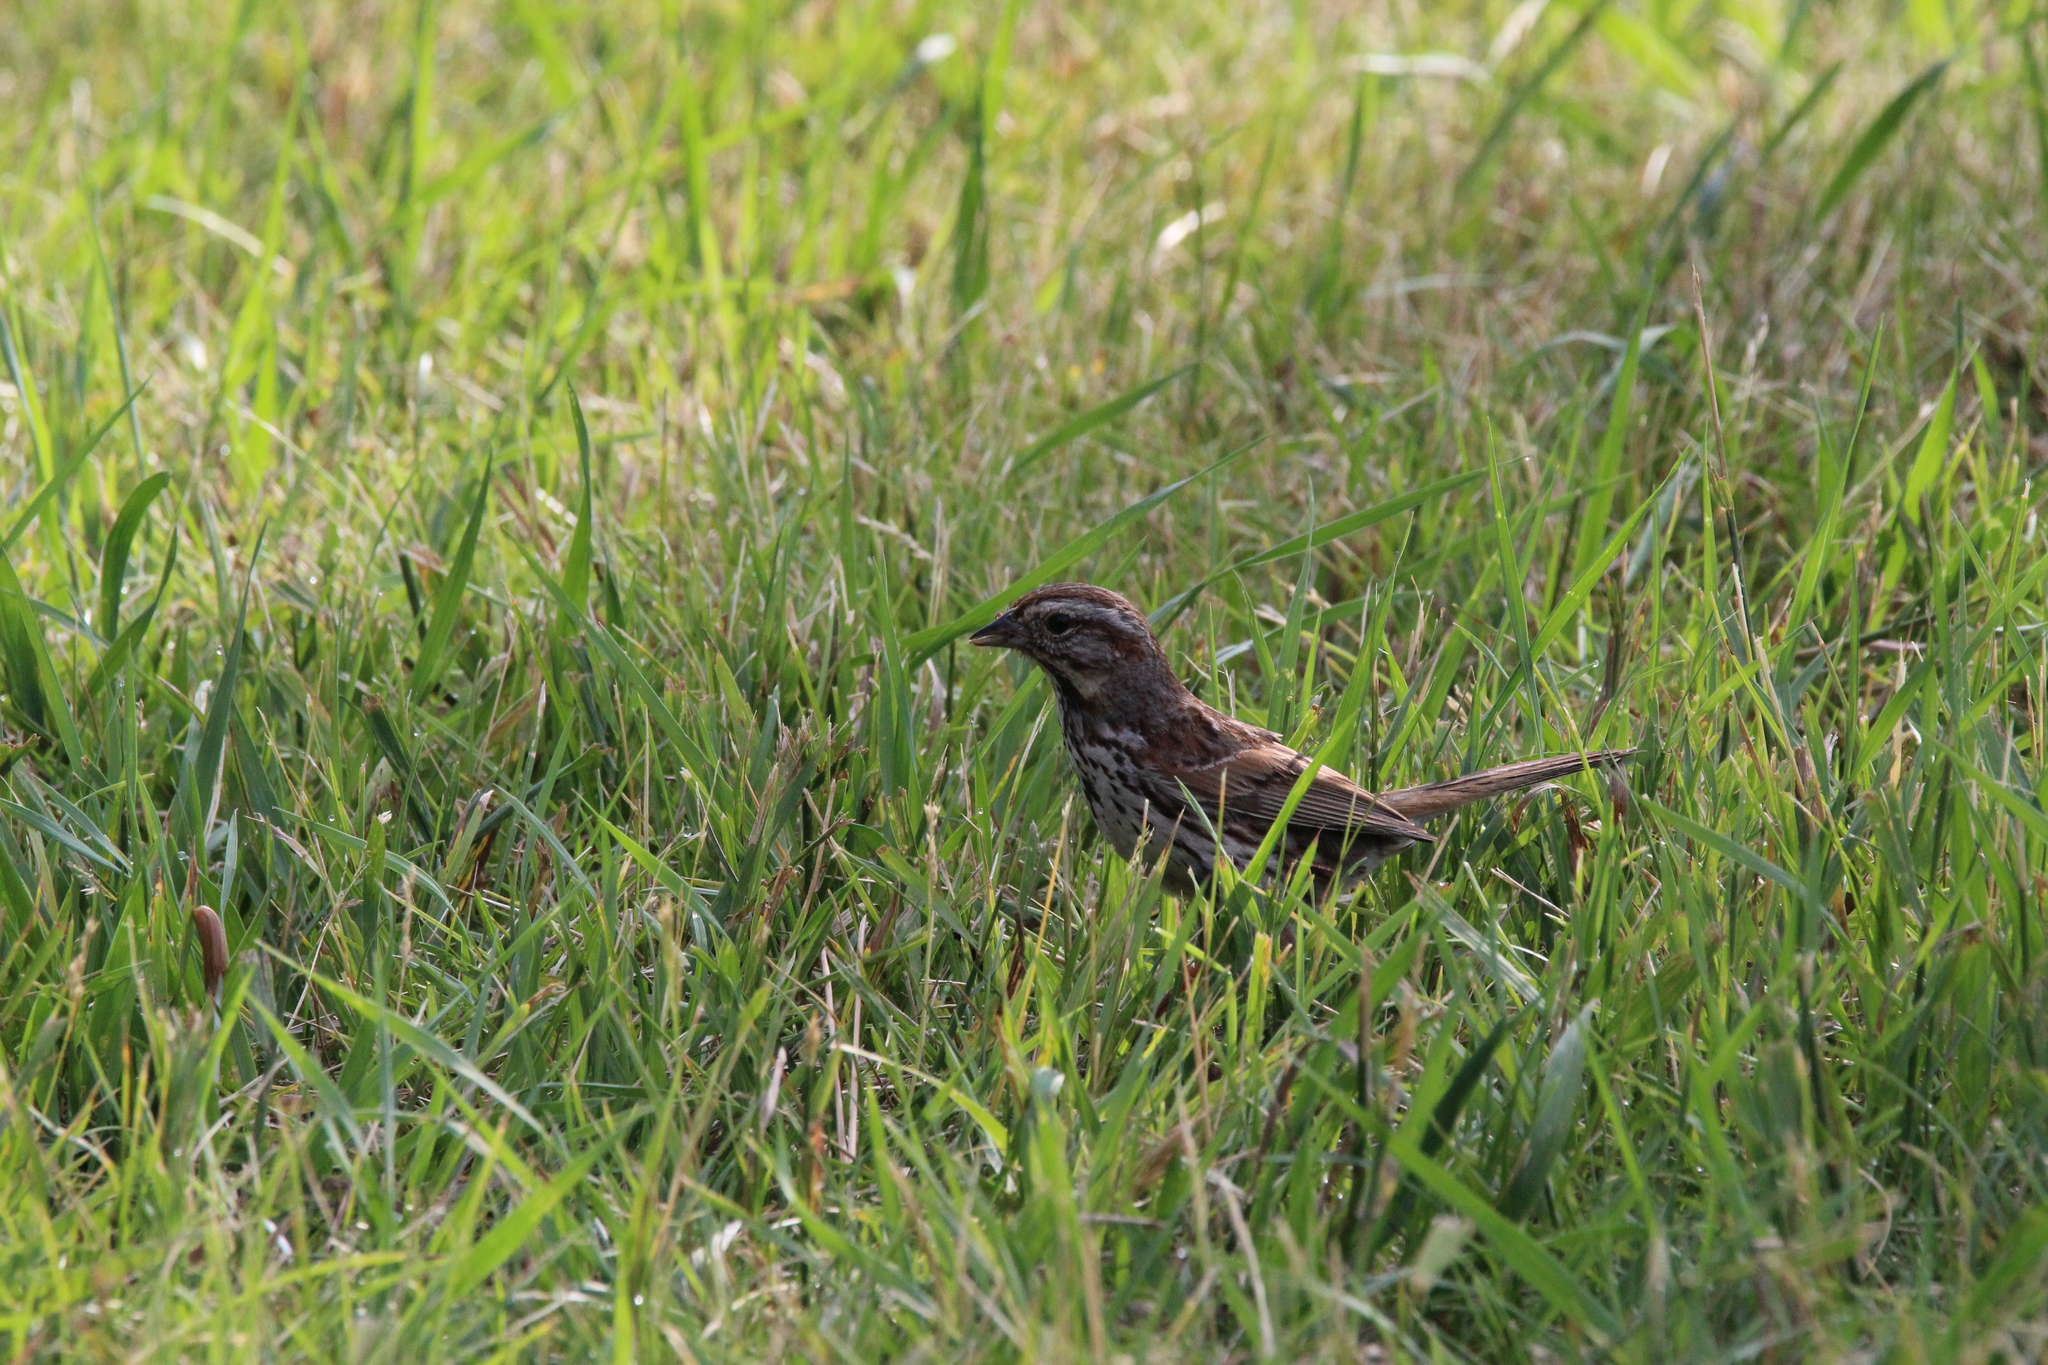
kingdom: Animalia
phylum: Chordata
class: Aves
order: Passeriformes
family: Passerellidae
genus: Melospiza
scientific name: Melospiza melodia
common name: Song sparrow
